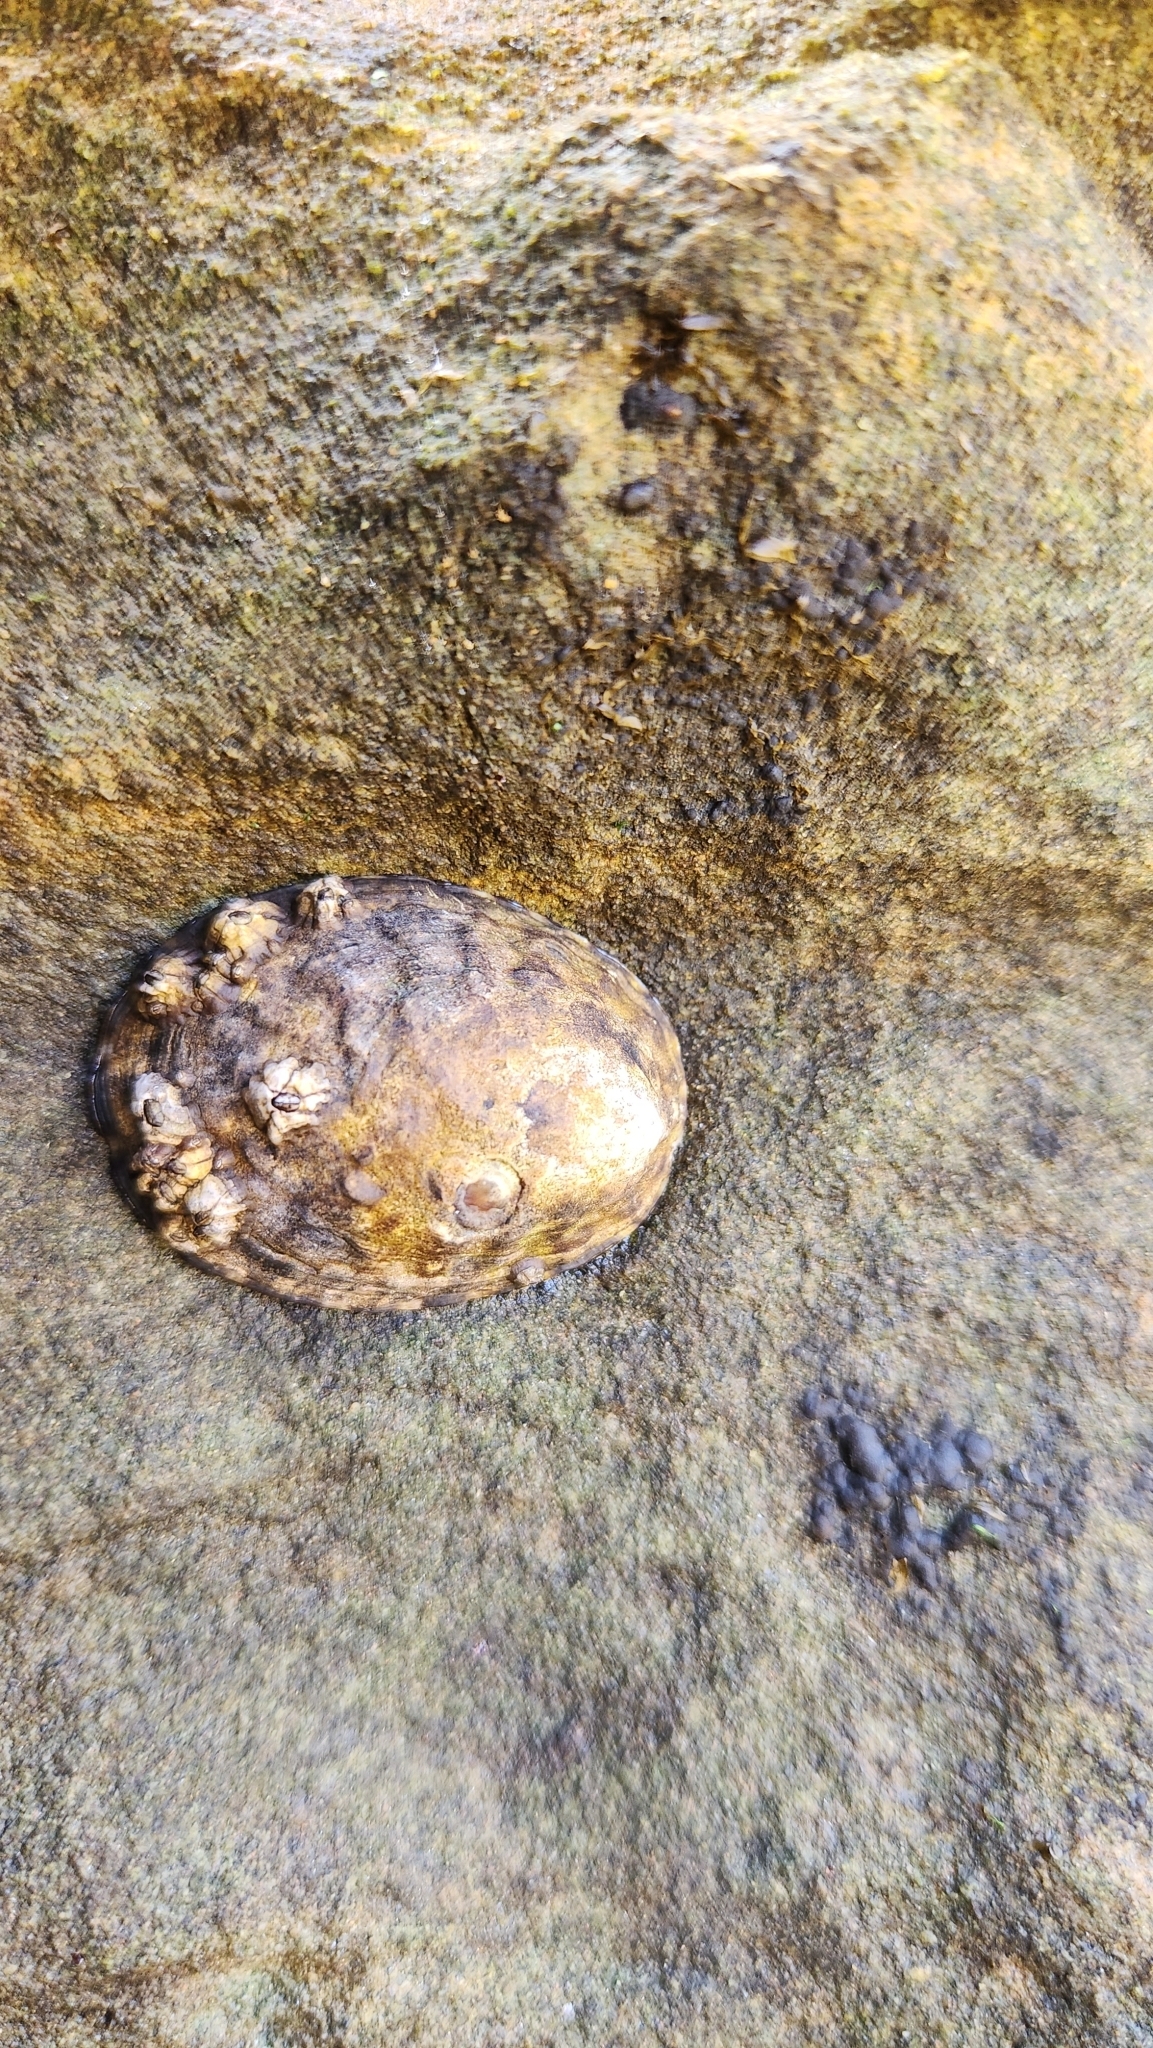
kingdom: Animalia
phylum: Mollusca
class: Gastropoda
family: Lottiidae
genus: Lottia
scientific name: Lottia gigantea
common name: Owl limpet
